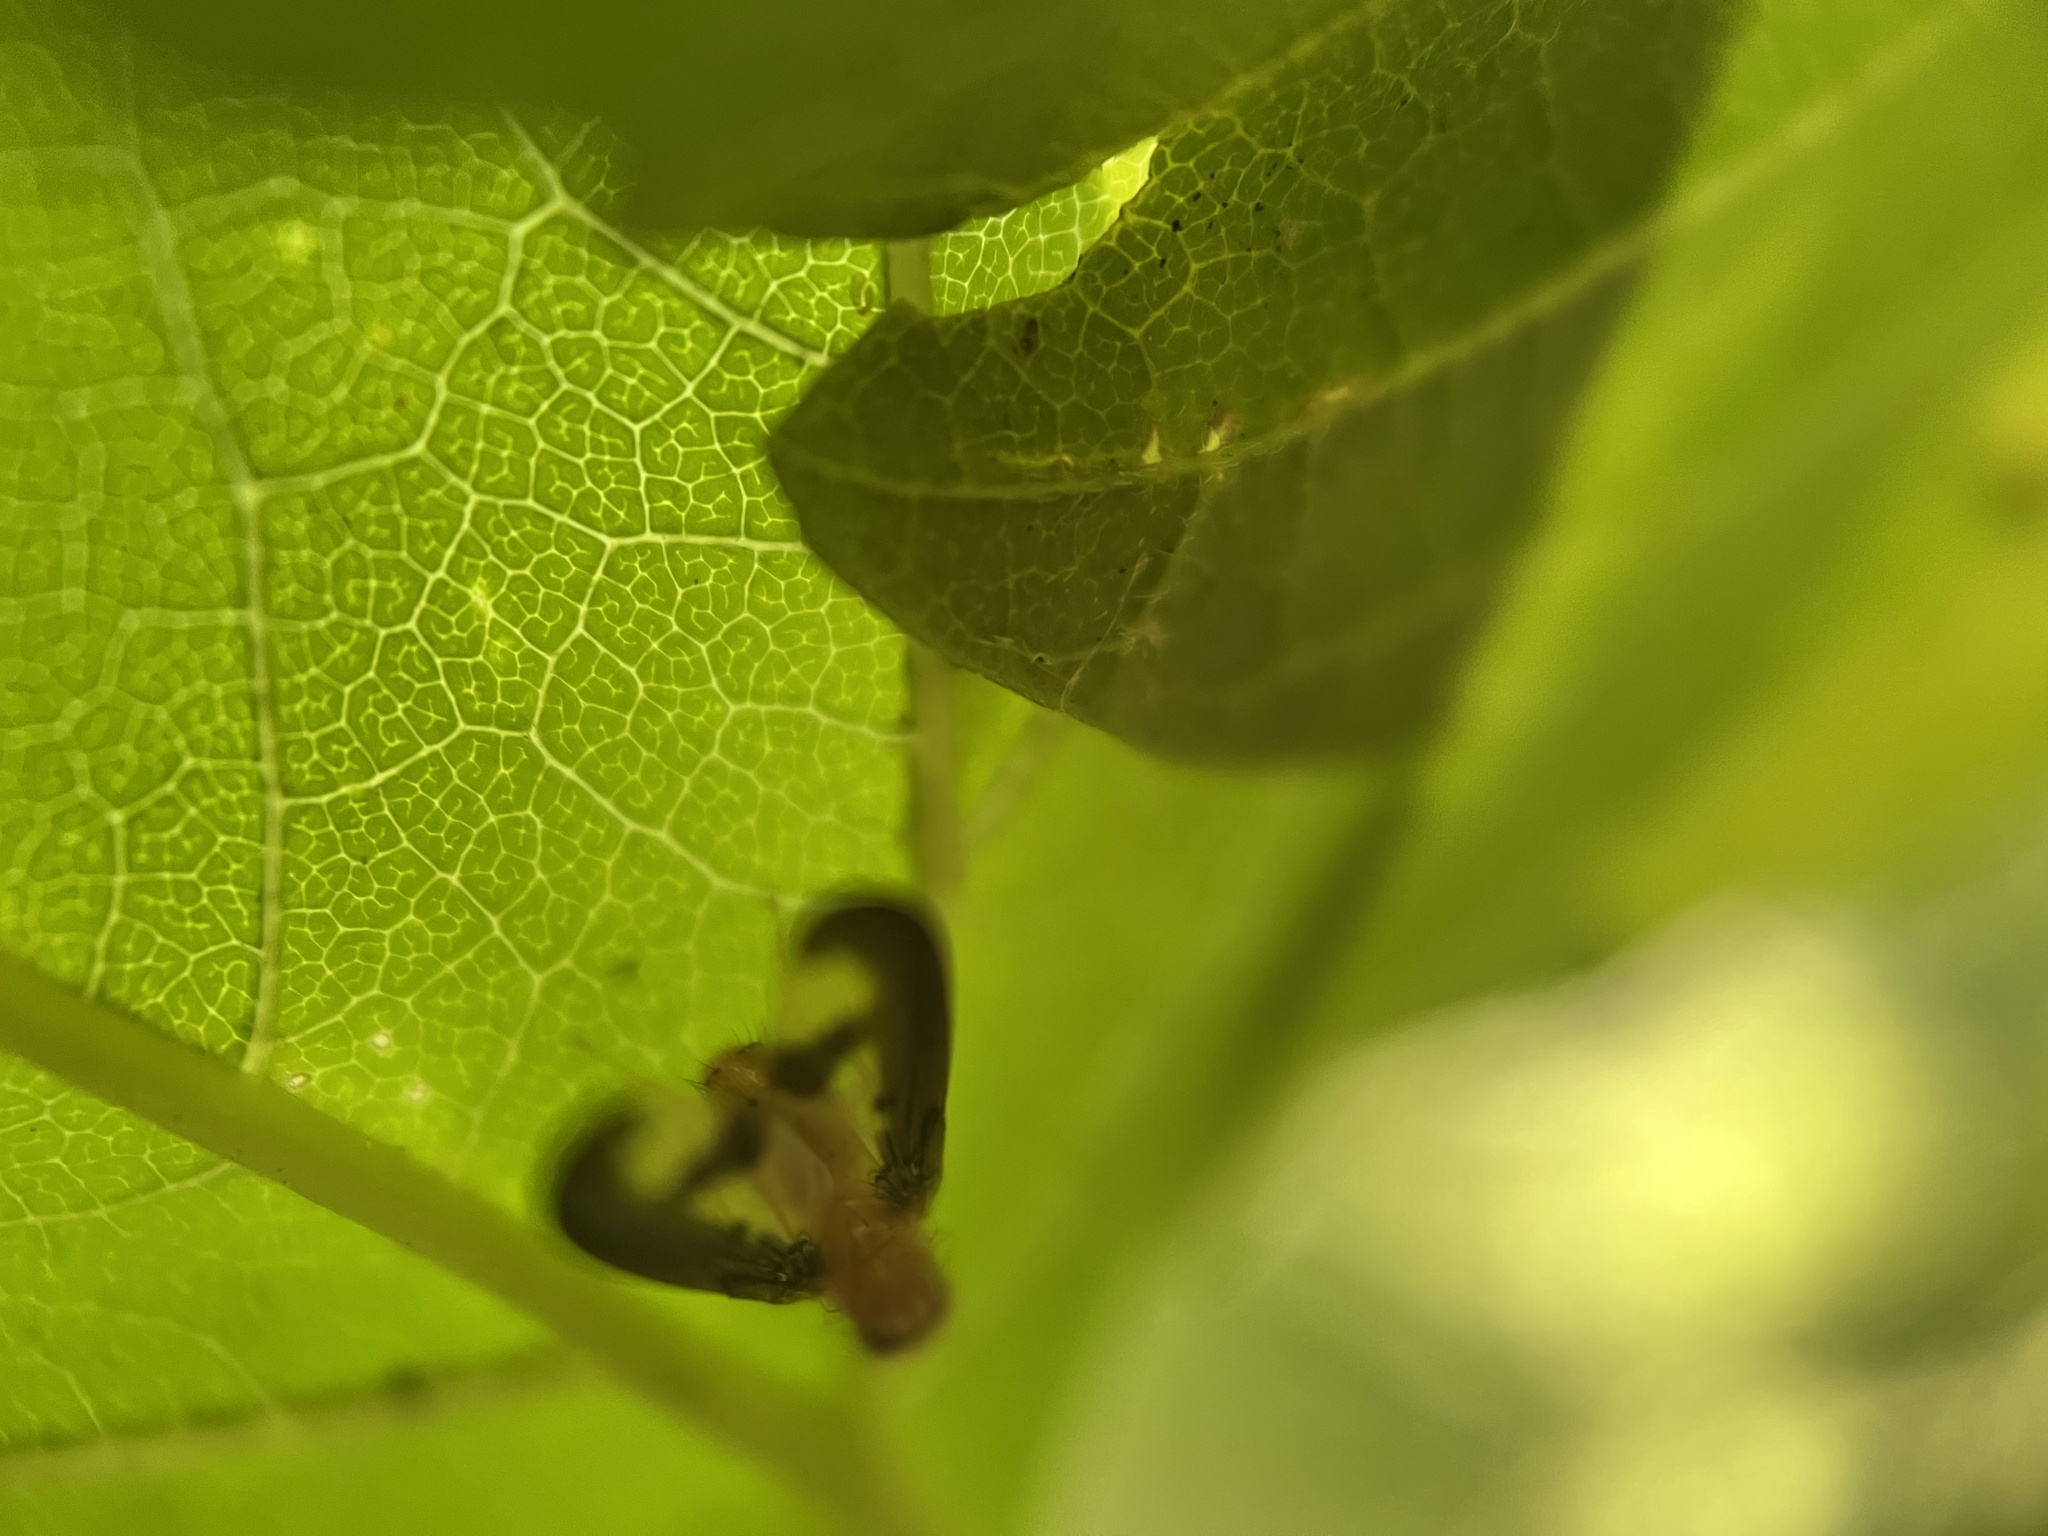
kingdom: Animalia
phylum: Arthropoda
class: Insecta
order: Diptera
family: Pallopteridae
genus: Toxonevra
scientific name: Toxonevra superba
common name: Antlered flutter fly
